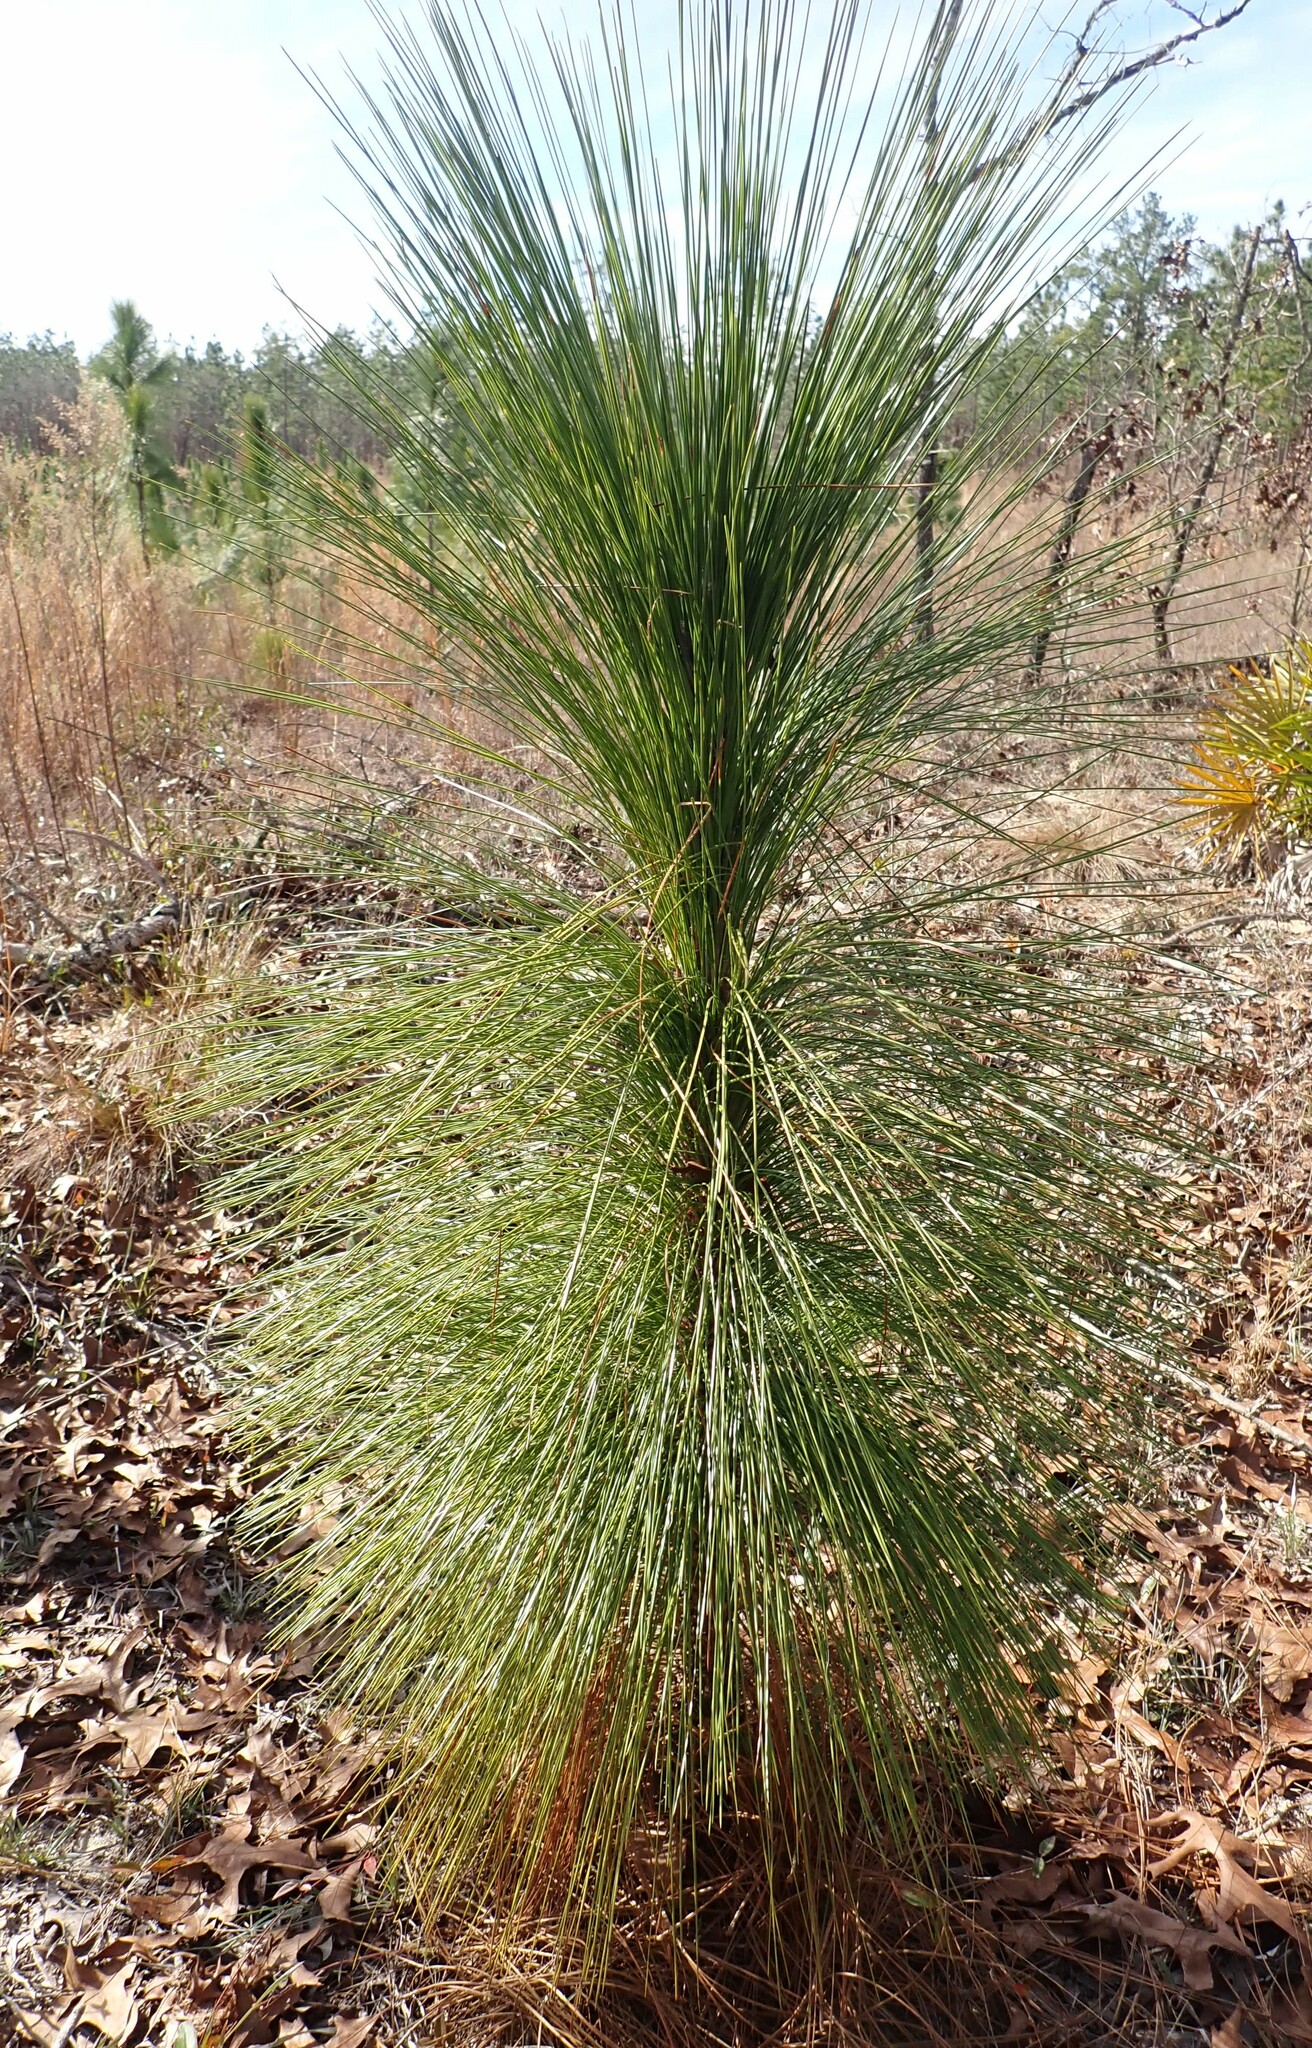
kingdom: Plantae
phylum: Tracheophyta
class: Pinopsida
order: Pinales
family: Pinaceae
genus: Pinus
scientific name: Pinus palustris
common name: Longleaf pine
